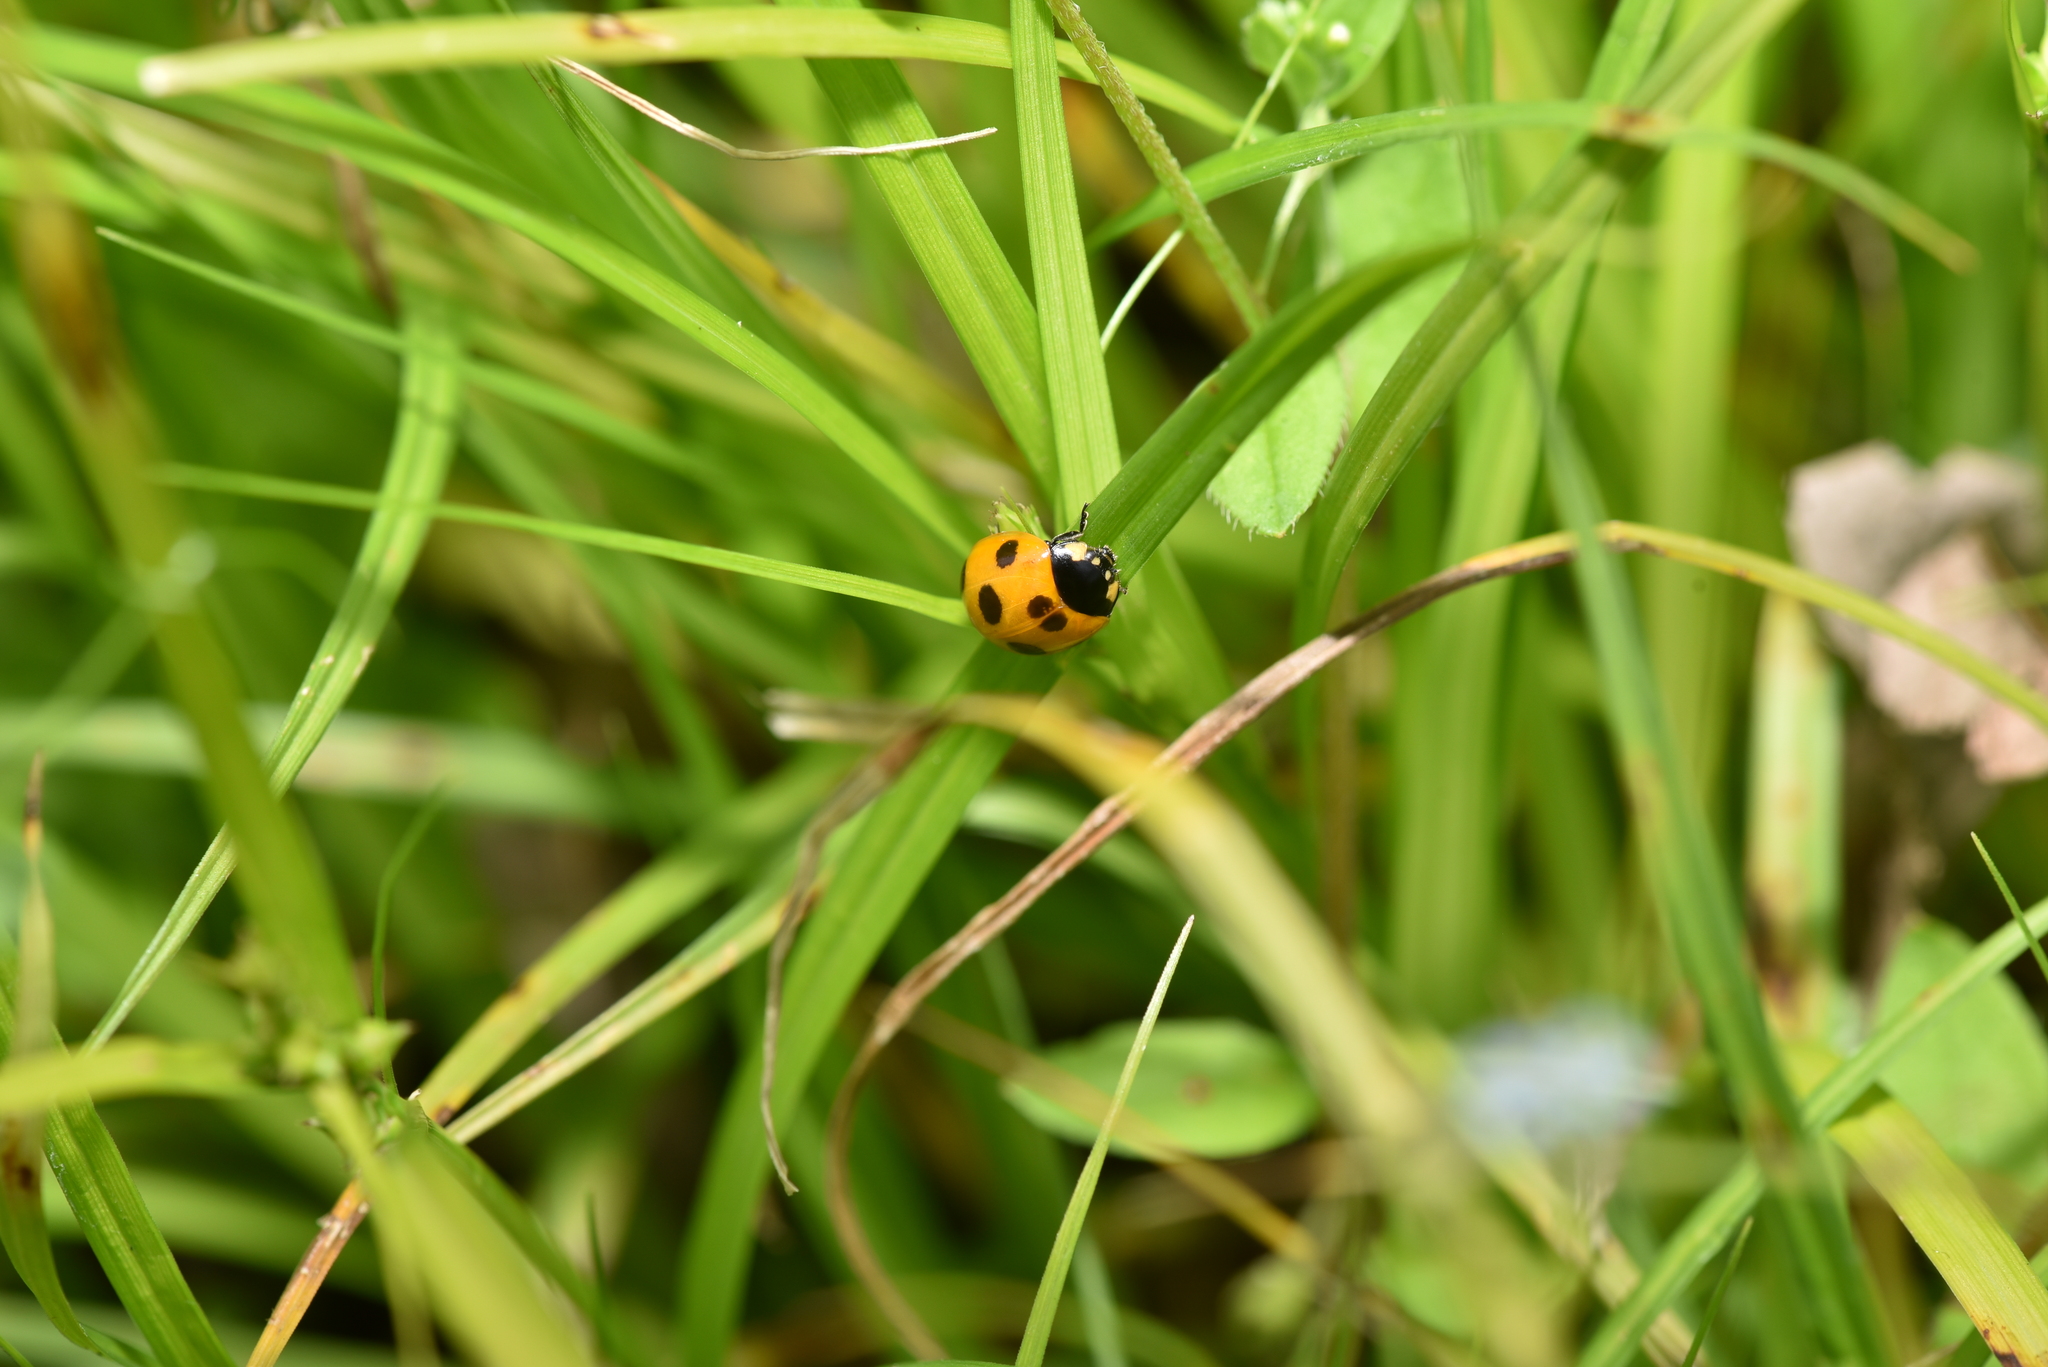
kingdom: Animalia
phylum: Arthropoda
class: Insecta
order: Coleoptera
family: Coccinellidae
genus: Coccinella
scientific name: Coccinella septempunctata
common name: Sevenspotted lady beetle
